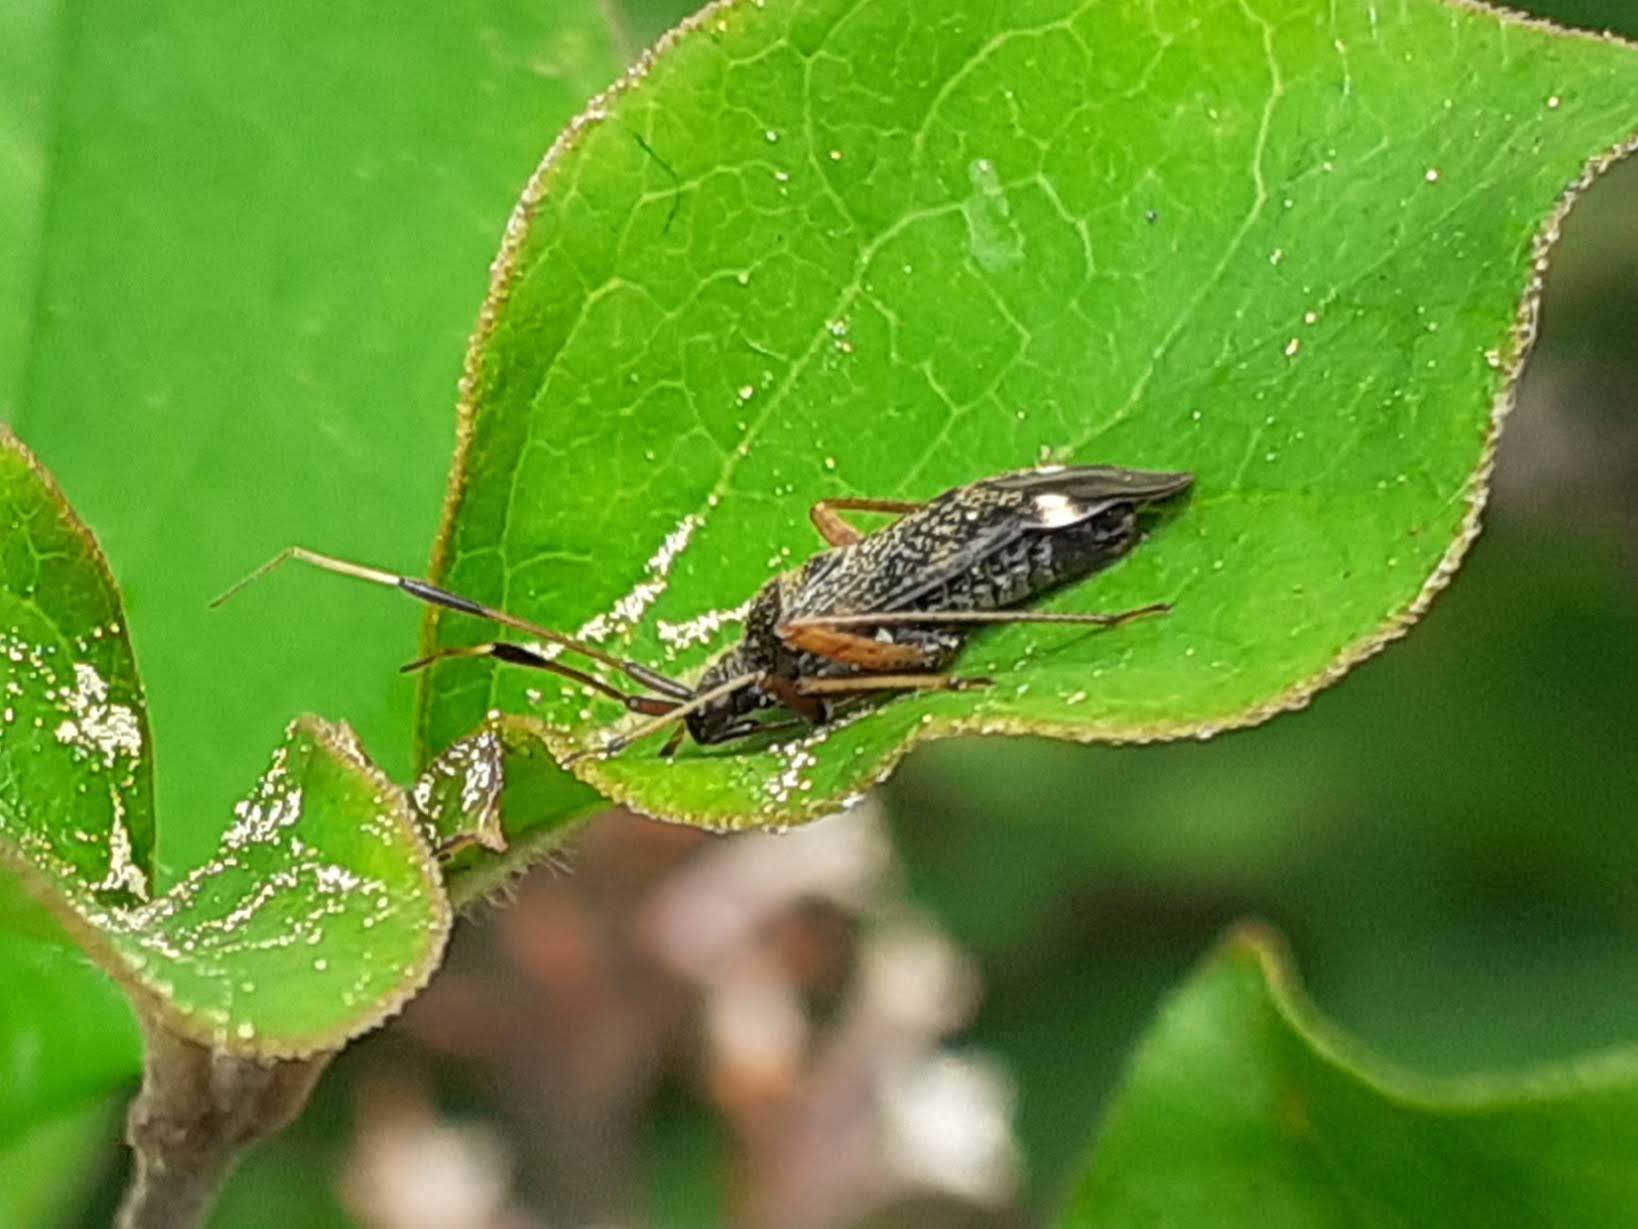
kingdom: Animalia
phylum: Arthropoda
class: Insecta
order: Hemiptera
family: Miridae
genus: Closterotomus
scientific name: Closterotomus biclavatus
